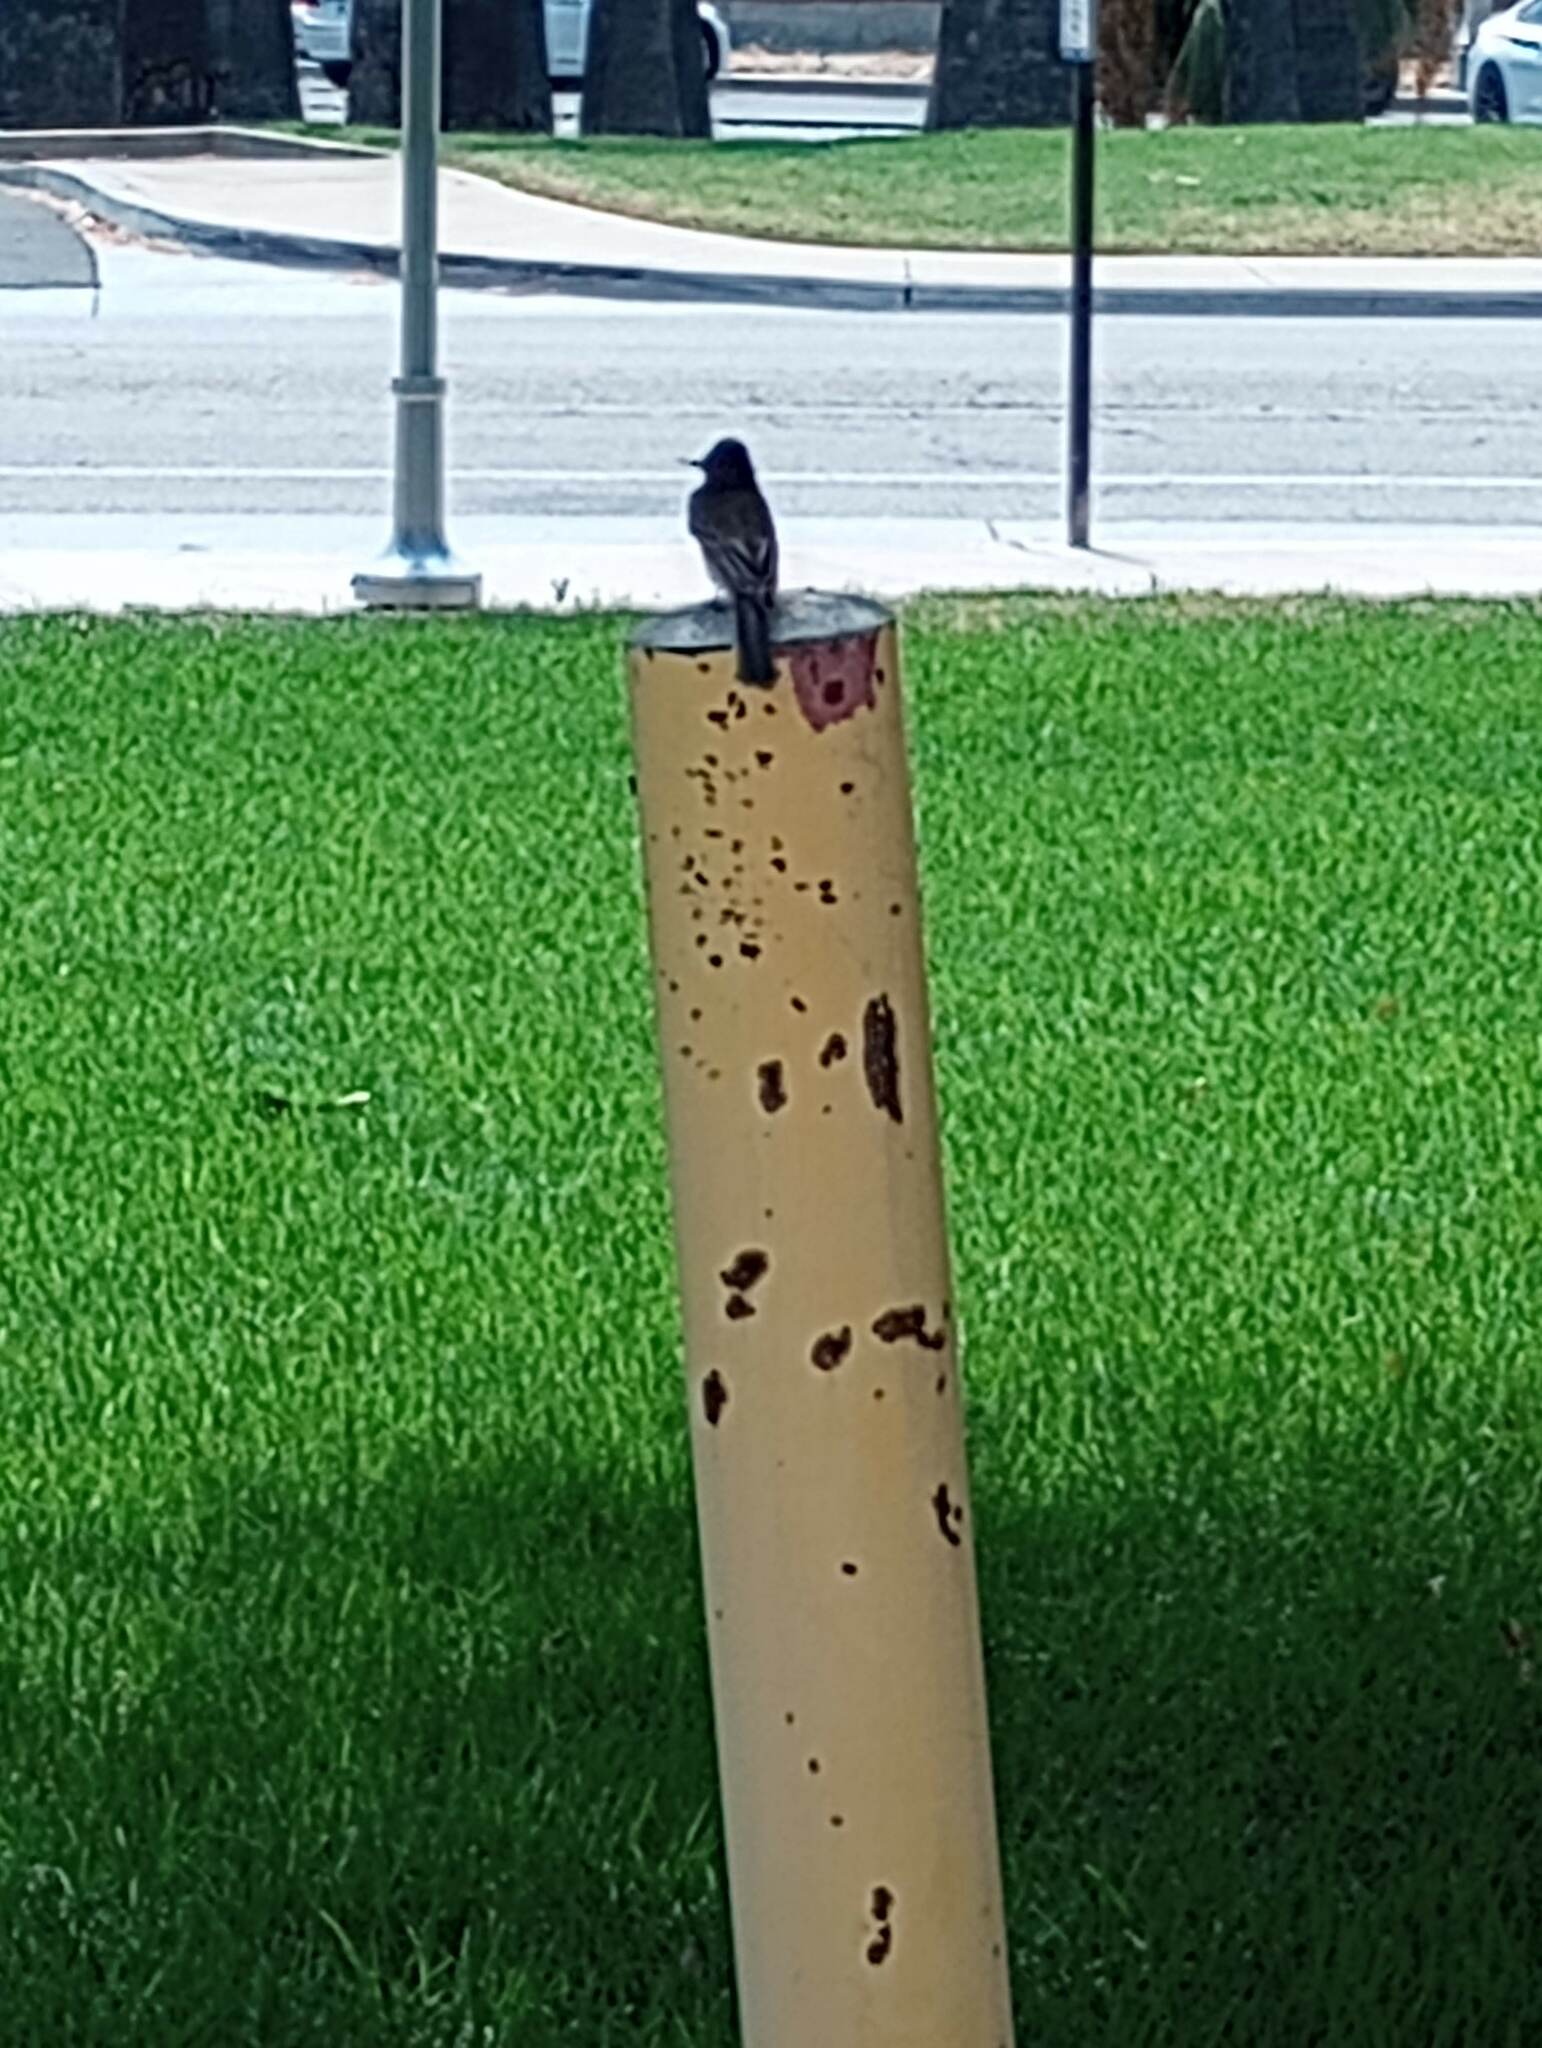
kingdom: Animalia
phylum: Chordata
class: Aves
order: Passeriformes
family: Tyrannidae
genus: Sayornis
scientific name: Sayornis nigricans
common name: Black phoebe
